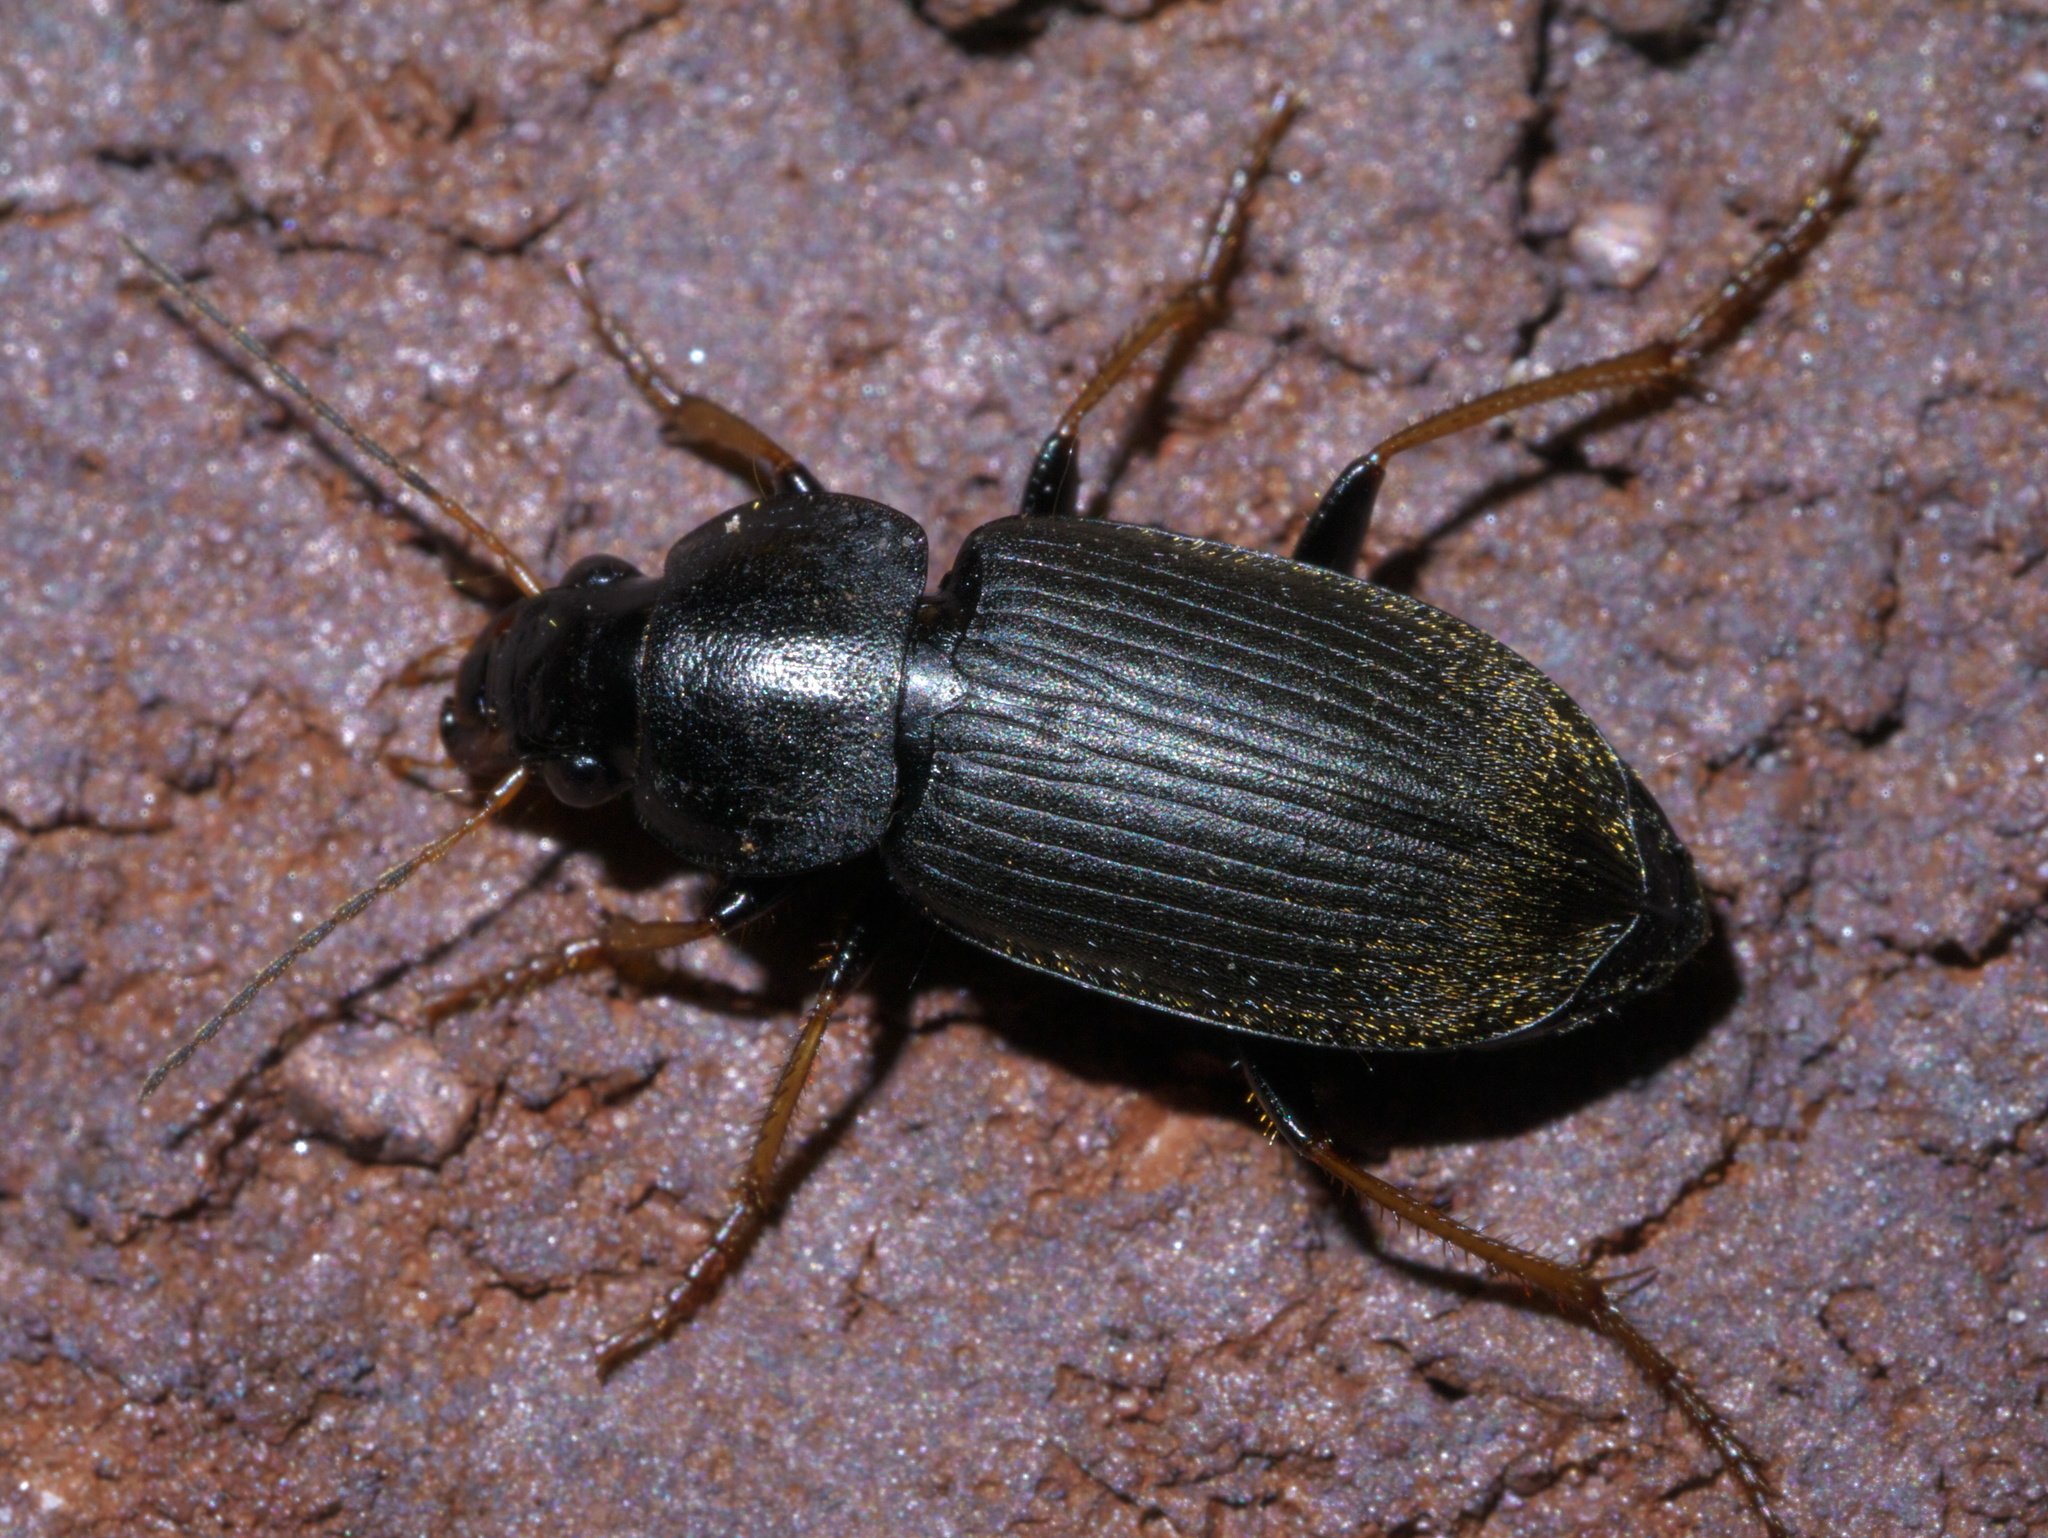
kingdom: Animalia
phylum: Arthropoda
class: Insecta
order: Coleoptera
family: Carabidae
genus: Amphasia
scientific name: Amphasia sericea
